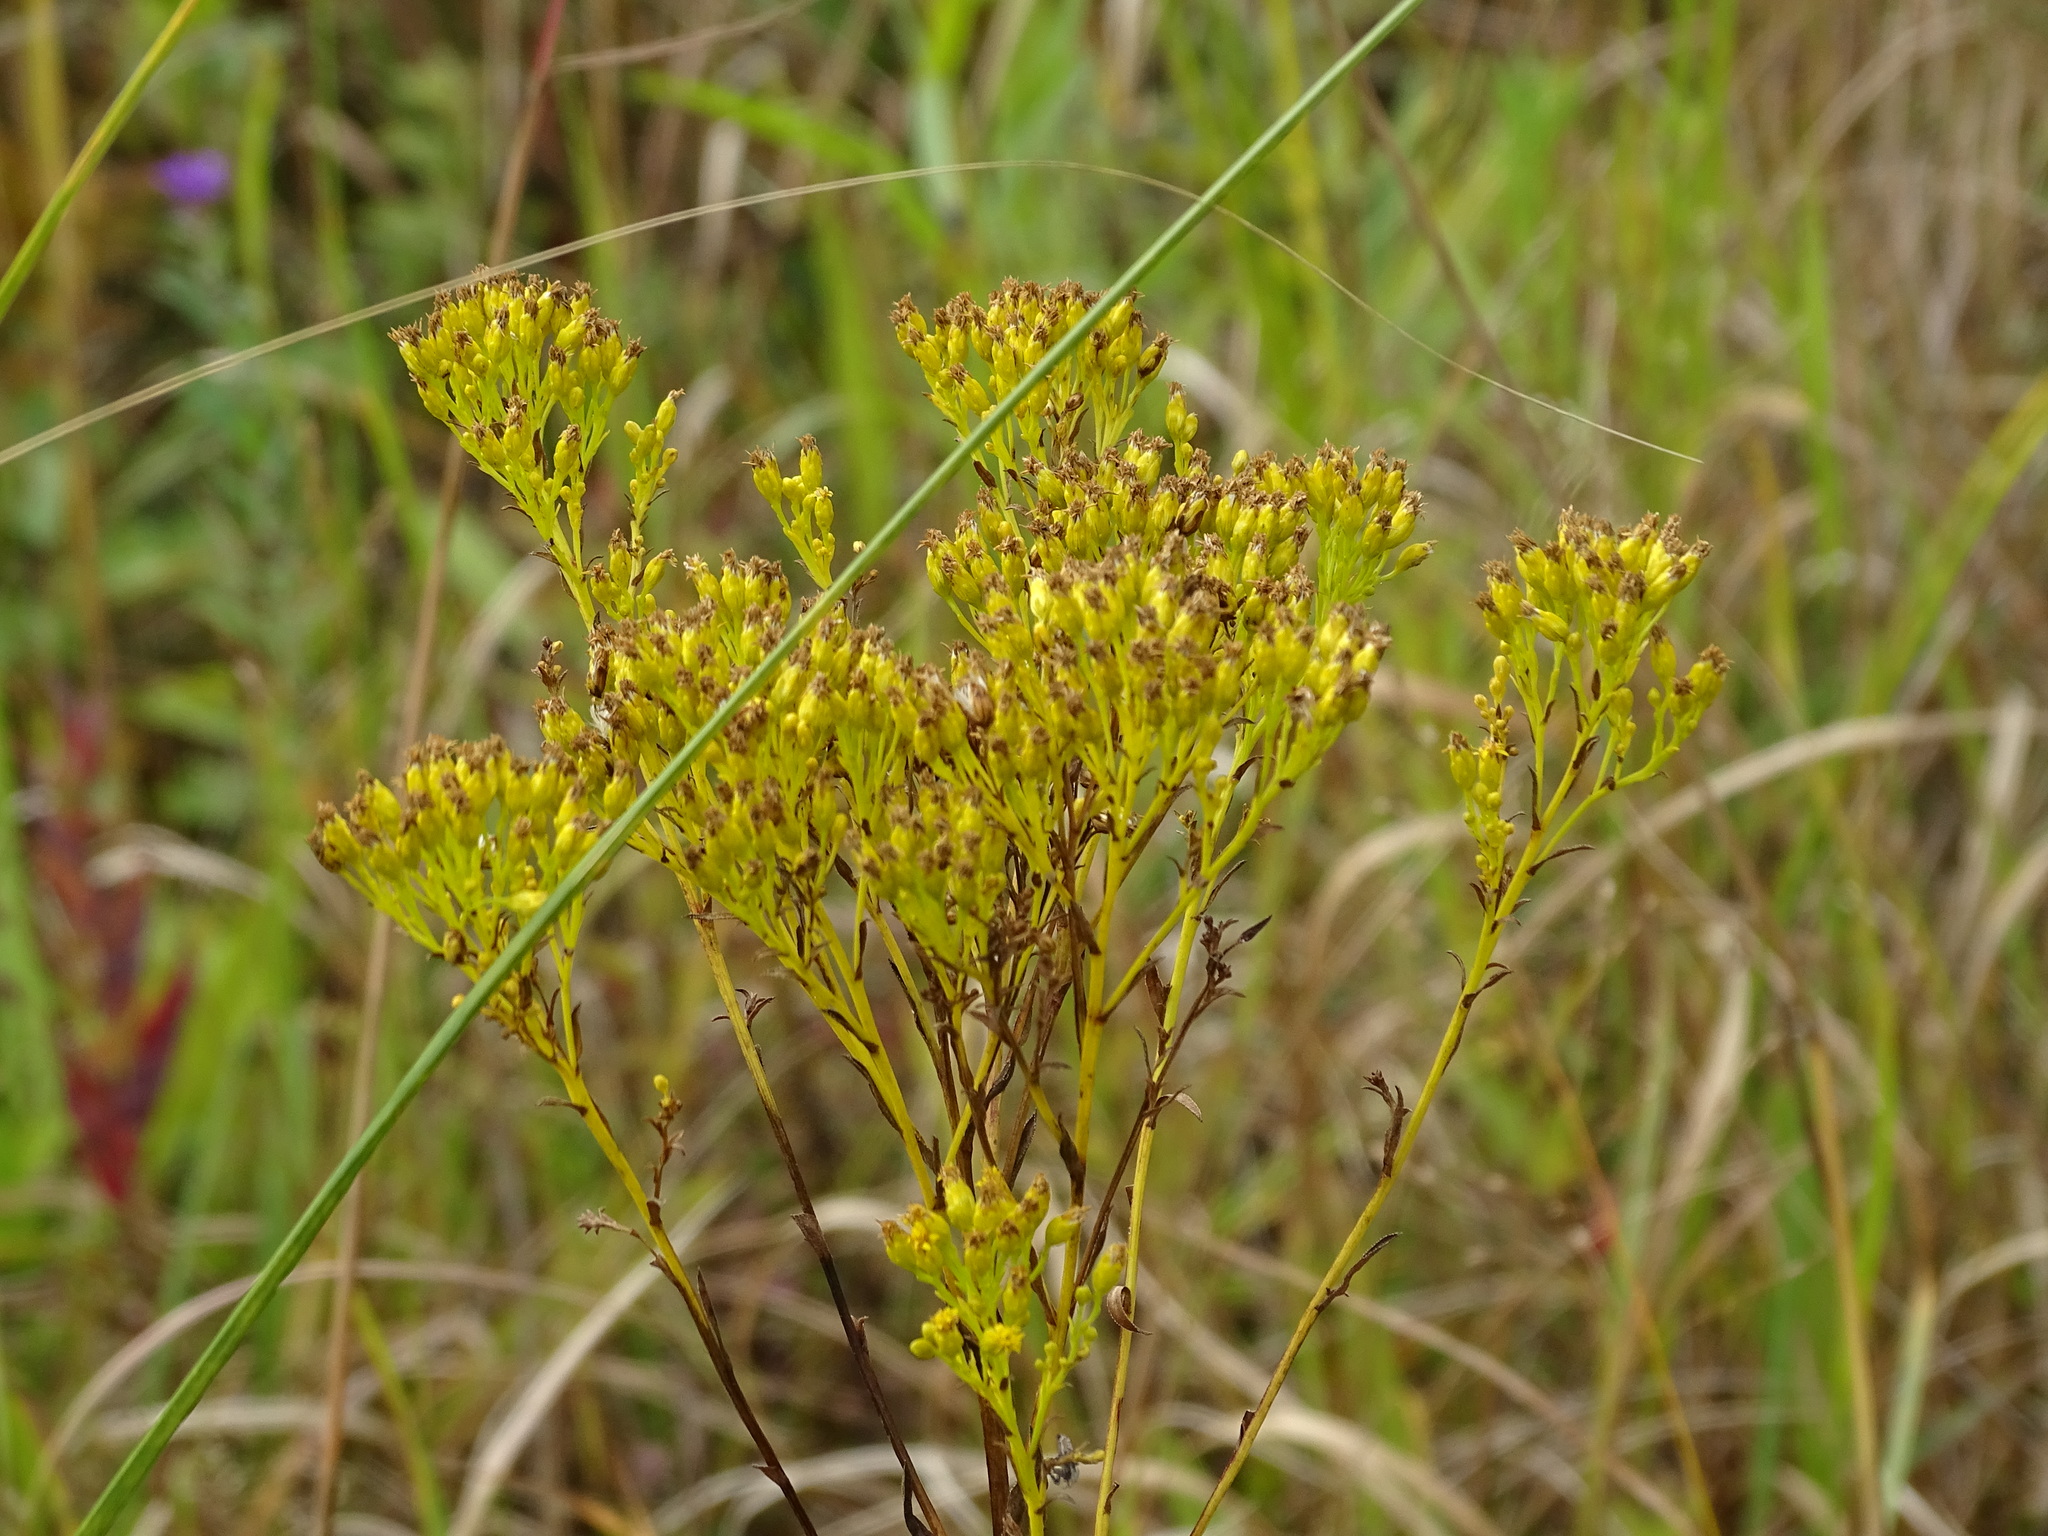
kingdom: Plantae
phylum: Tracheophyta
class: Magnoliopsida
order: Asterales
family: Asteraceae
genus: Solidago
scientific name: Solidago ohioensis
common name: Ohio goldenrod
